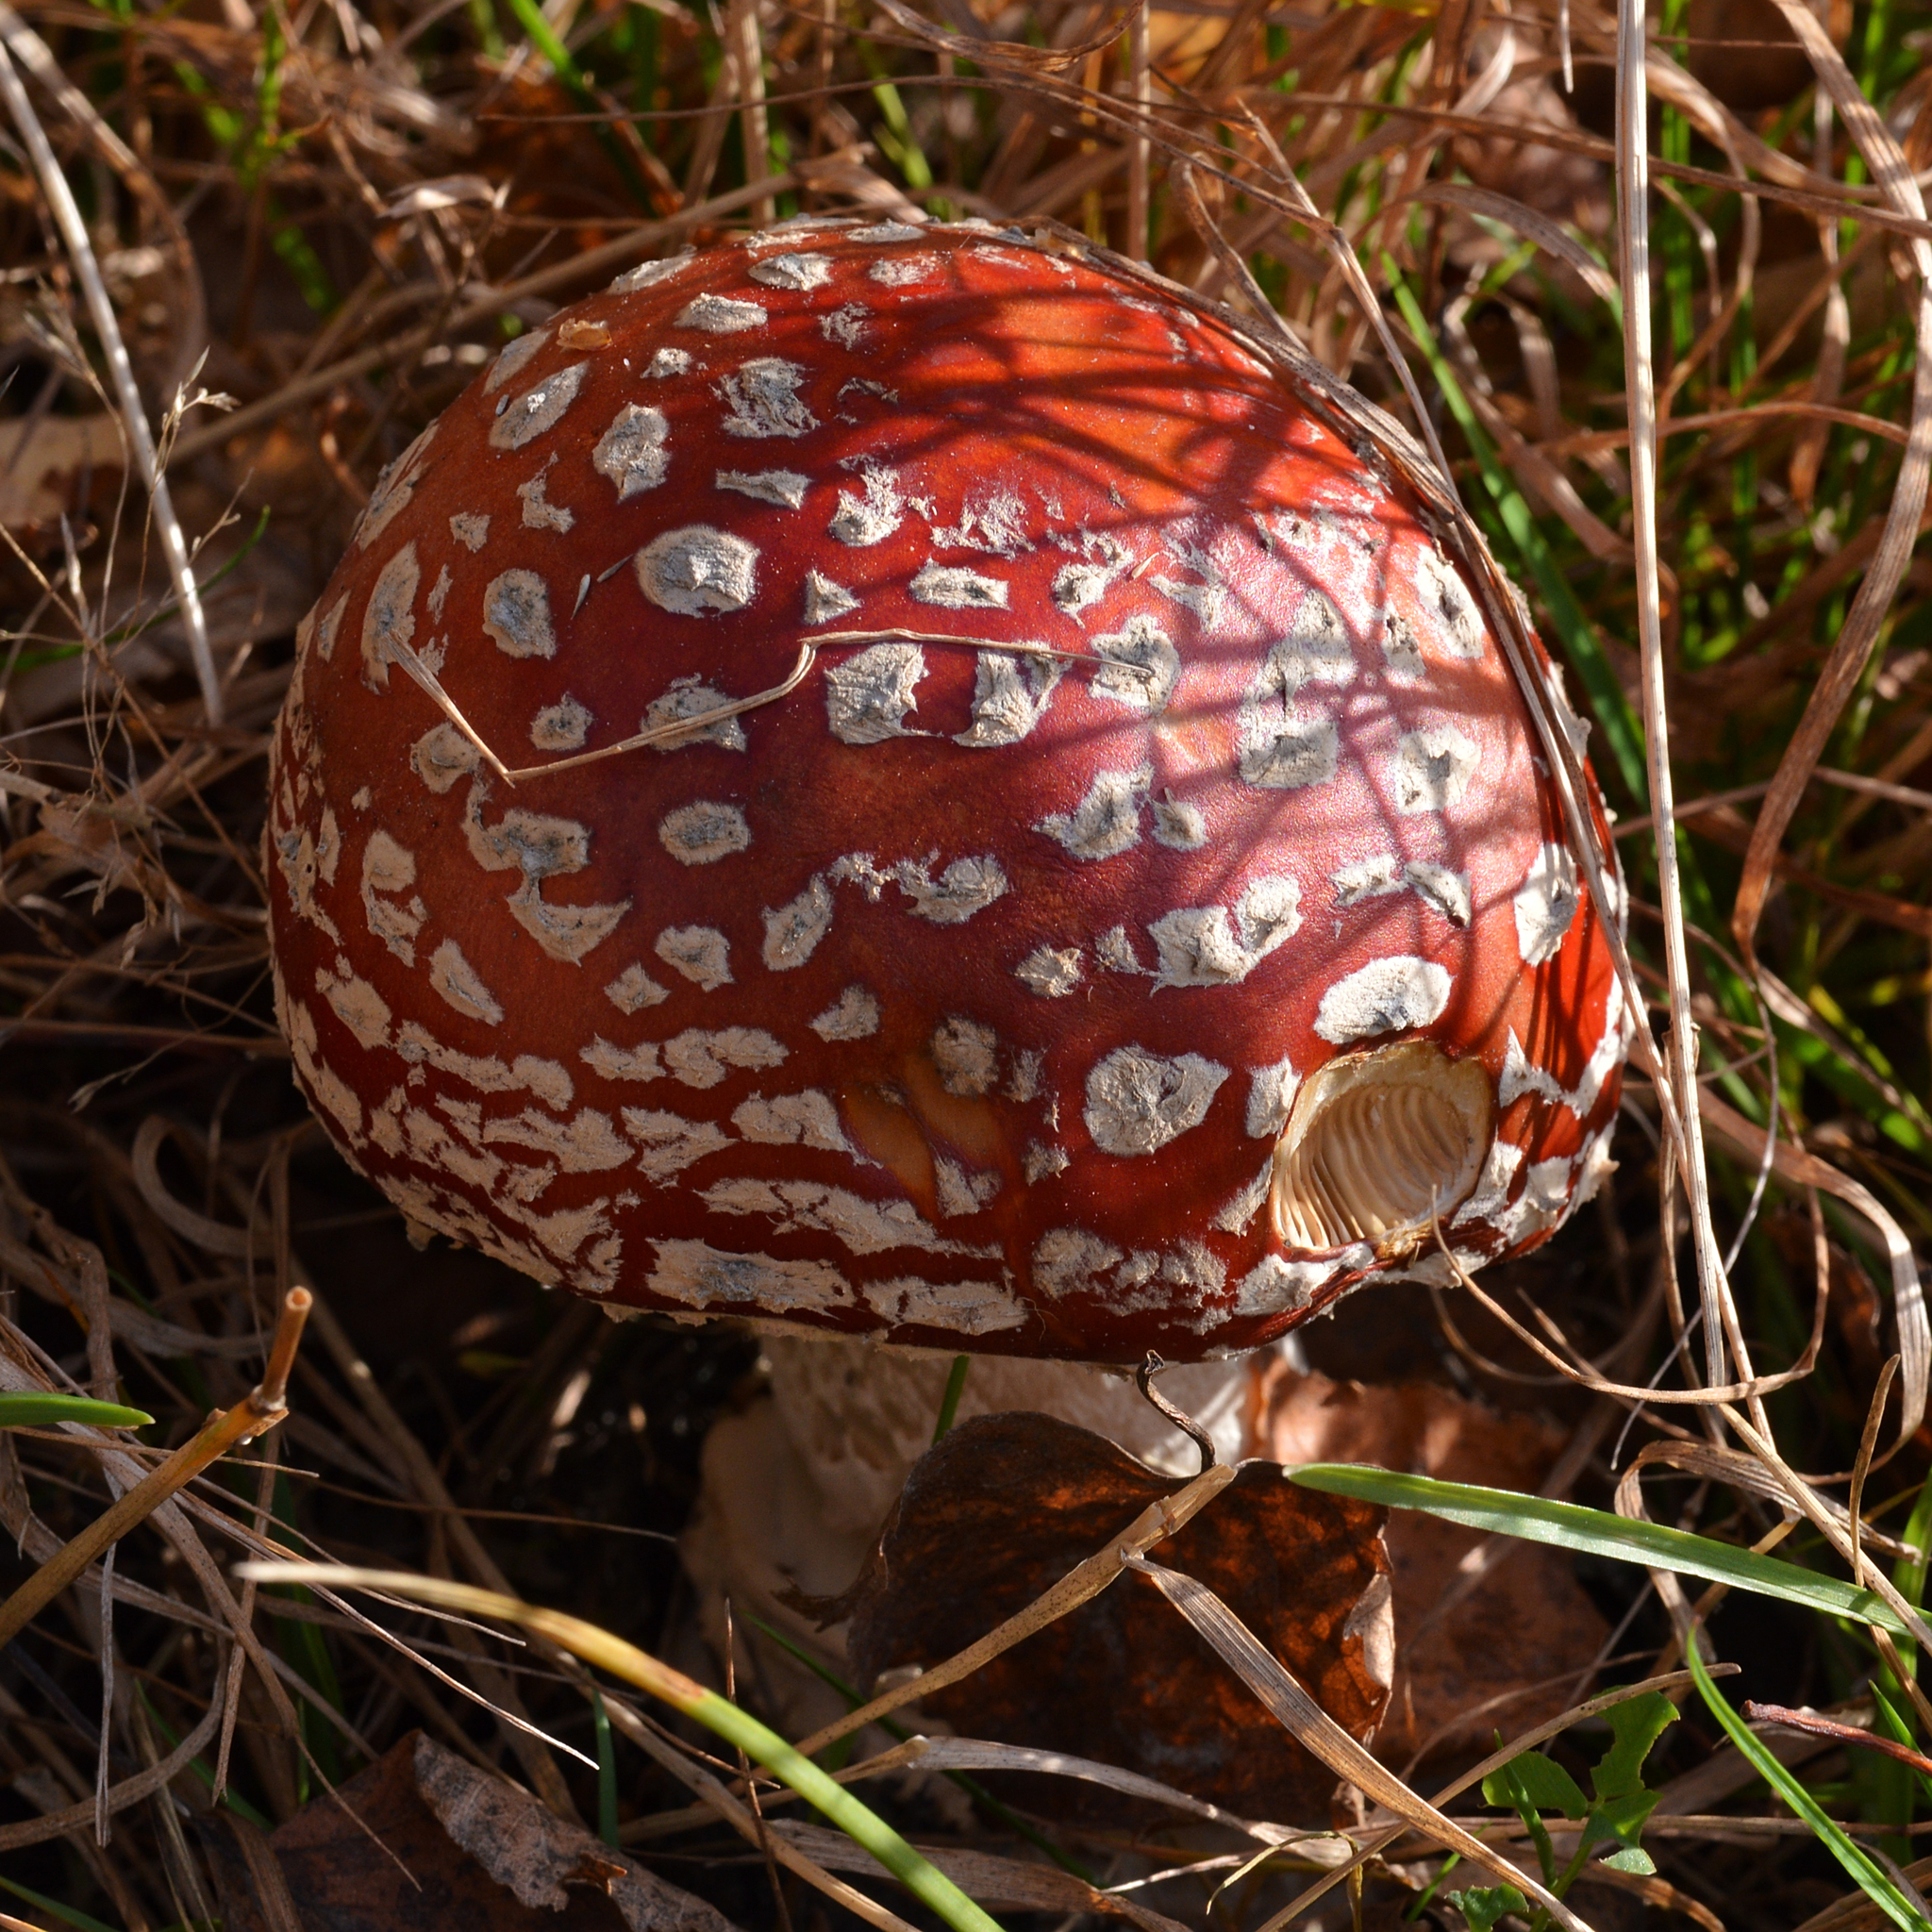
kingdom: Fungi
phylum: Basidiomycota
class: Agaricomycetes
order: Agaricales
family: Amanitaceae
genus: Amanita
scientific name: Amanita muscaria
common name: Fly agaric
